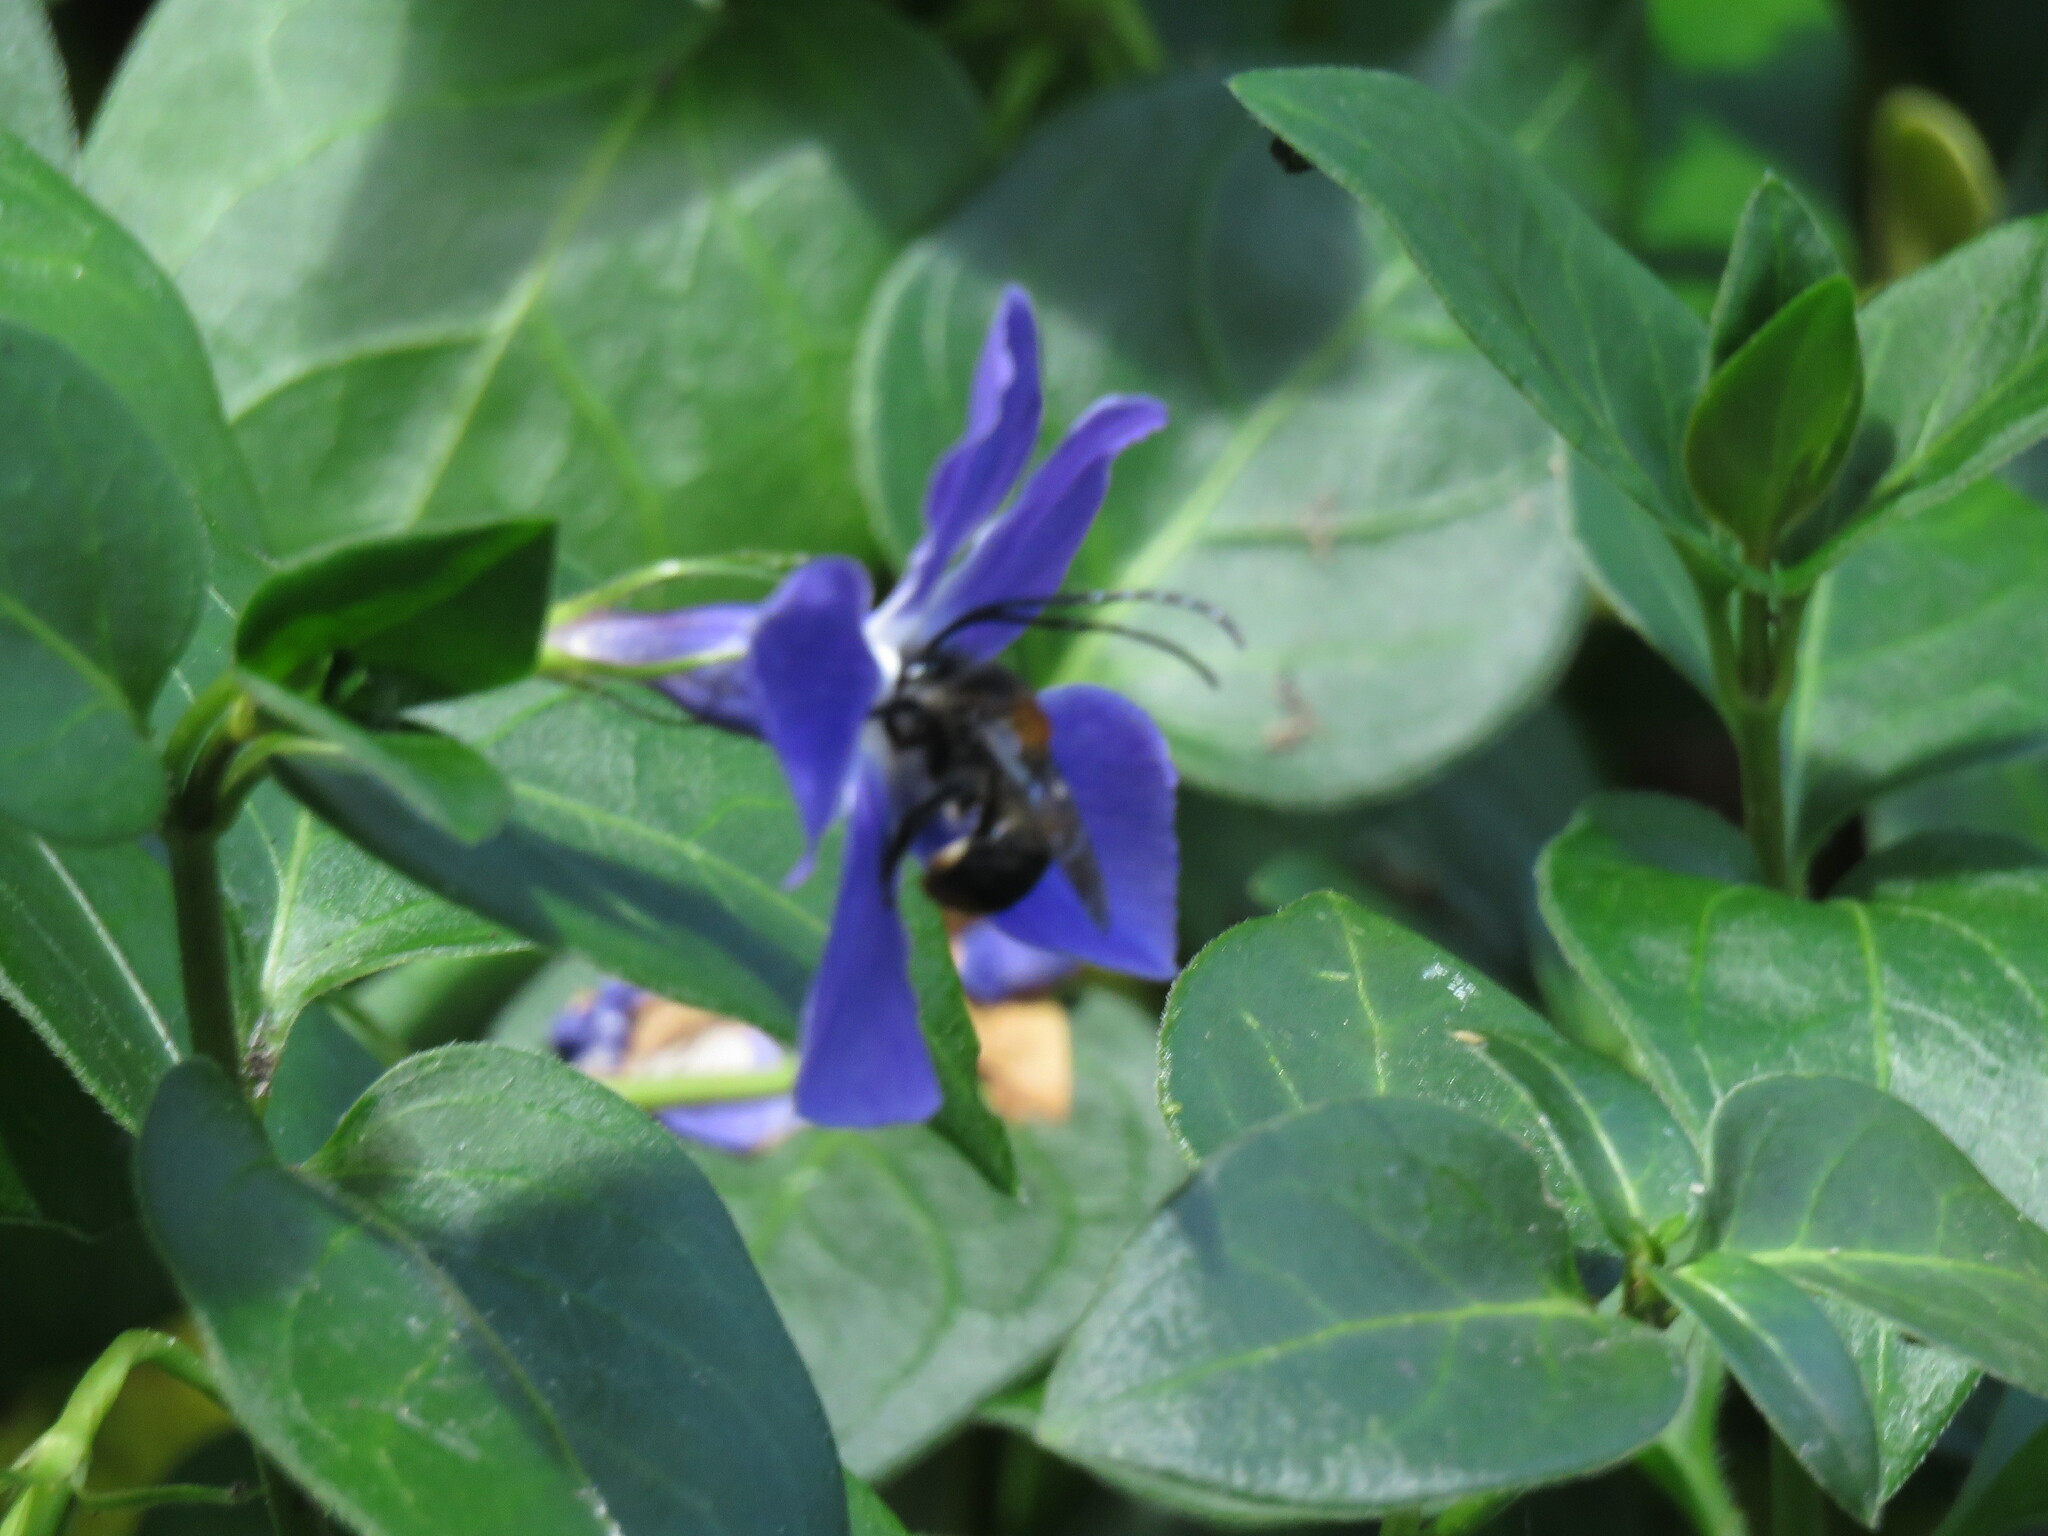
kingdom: Plantae
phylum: Tracheophyta
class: Magnoliopsida
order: Gentianales
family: Apocynaceae
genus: Vinca
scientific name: Vinca major
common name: Greater periwinkle
